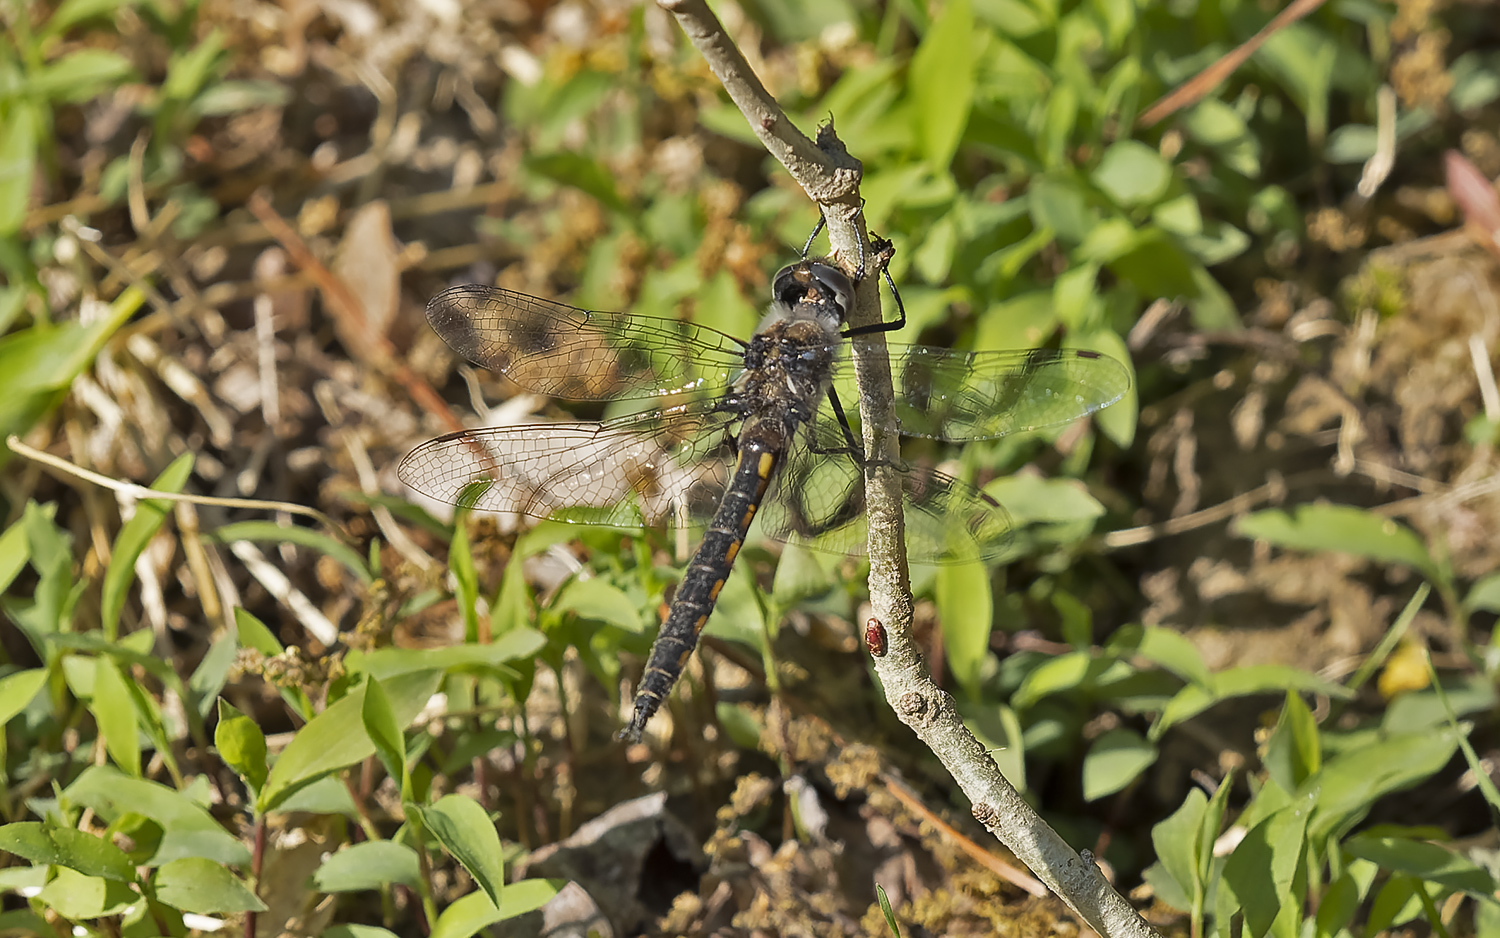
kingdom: Animalia
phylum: Arthropoda
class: Insecta
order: Odonata
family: Corduliidae
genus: Epitheca
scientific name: Epitheca cynosura
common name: Common baskettail
